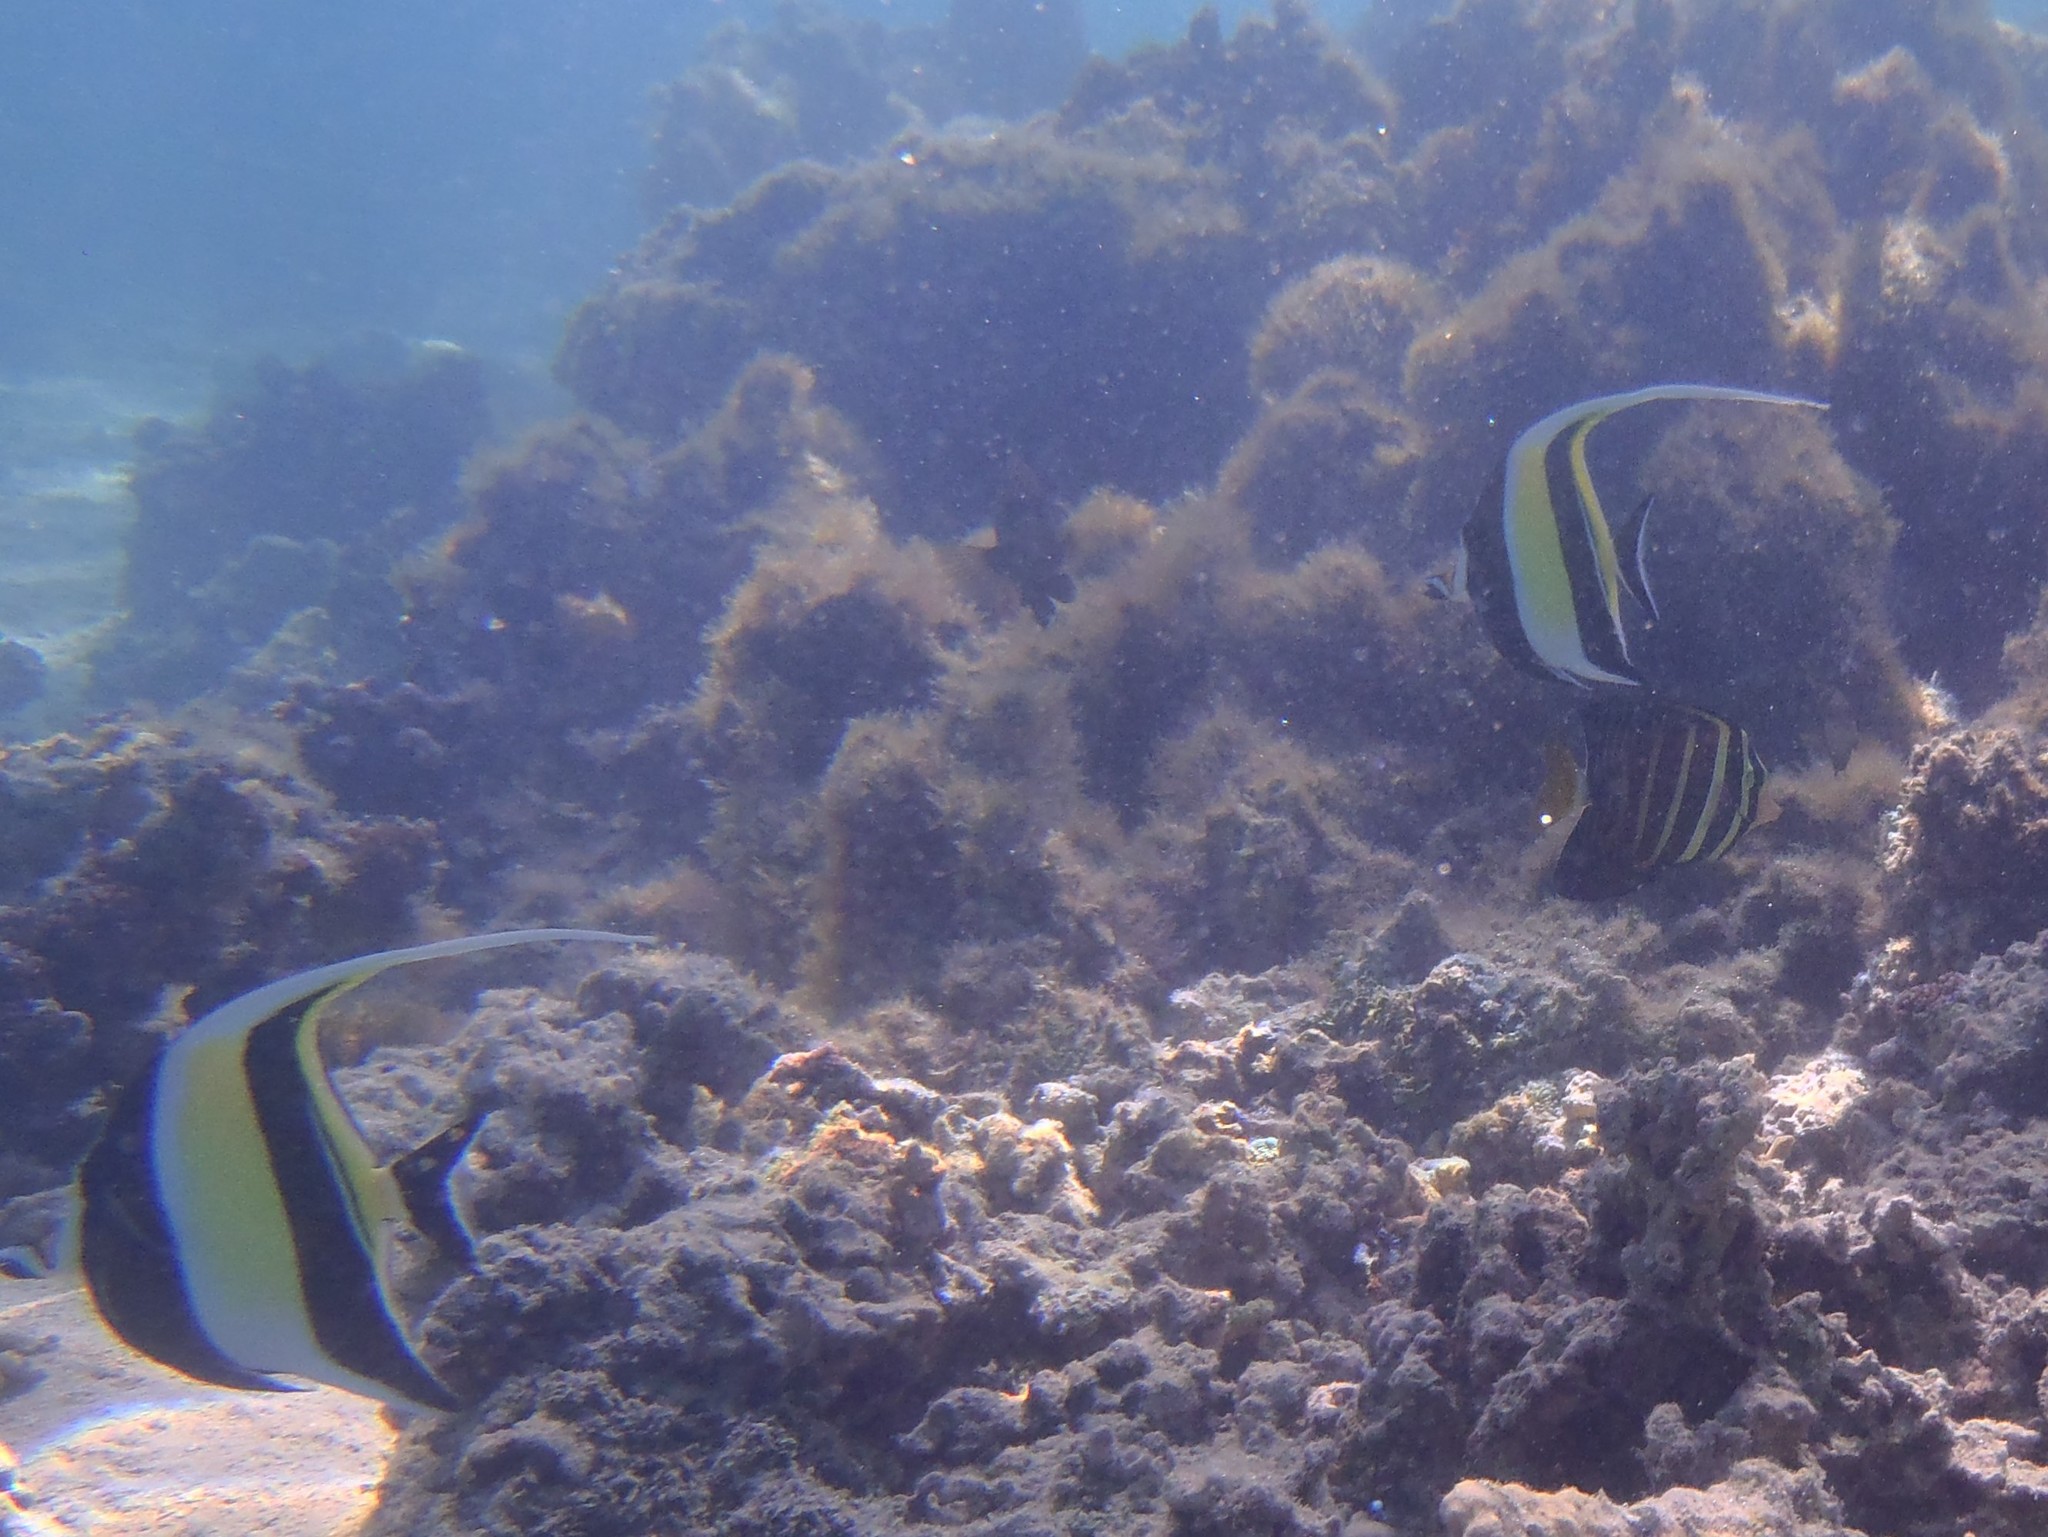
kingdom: Animalia
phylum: Chordata
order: Perciformes
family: Zanclidae
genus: Zanclus
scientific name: Zanclus cornutus
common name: Moorish idol
